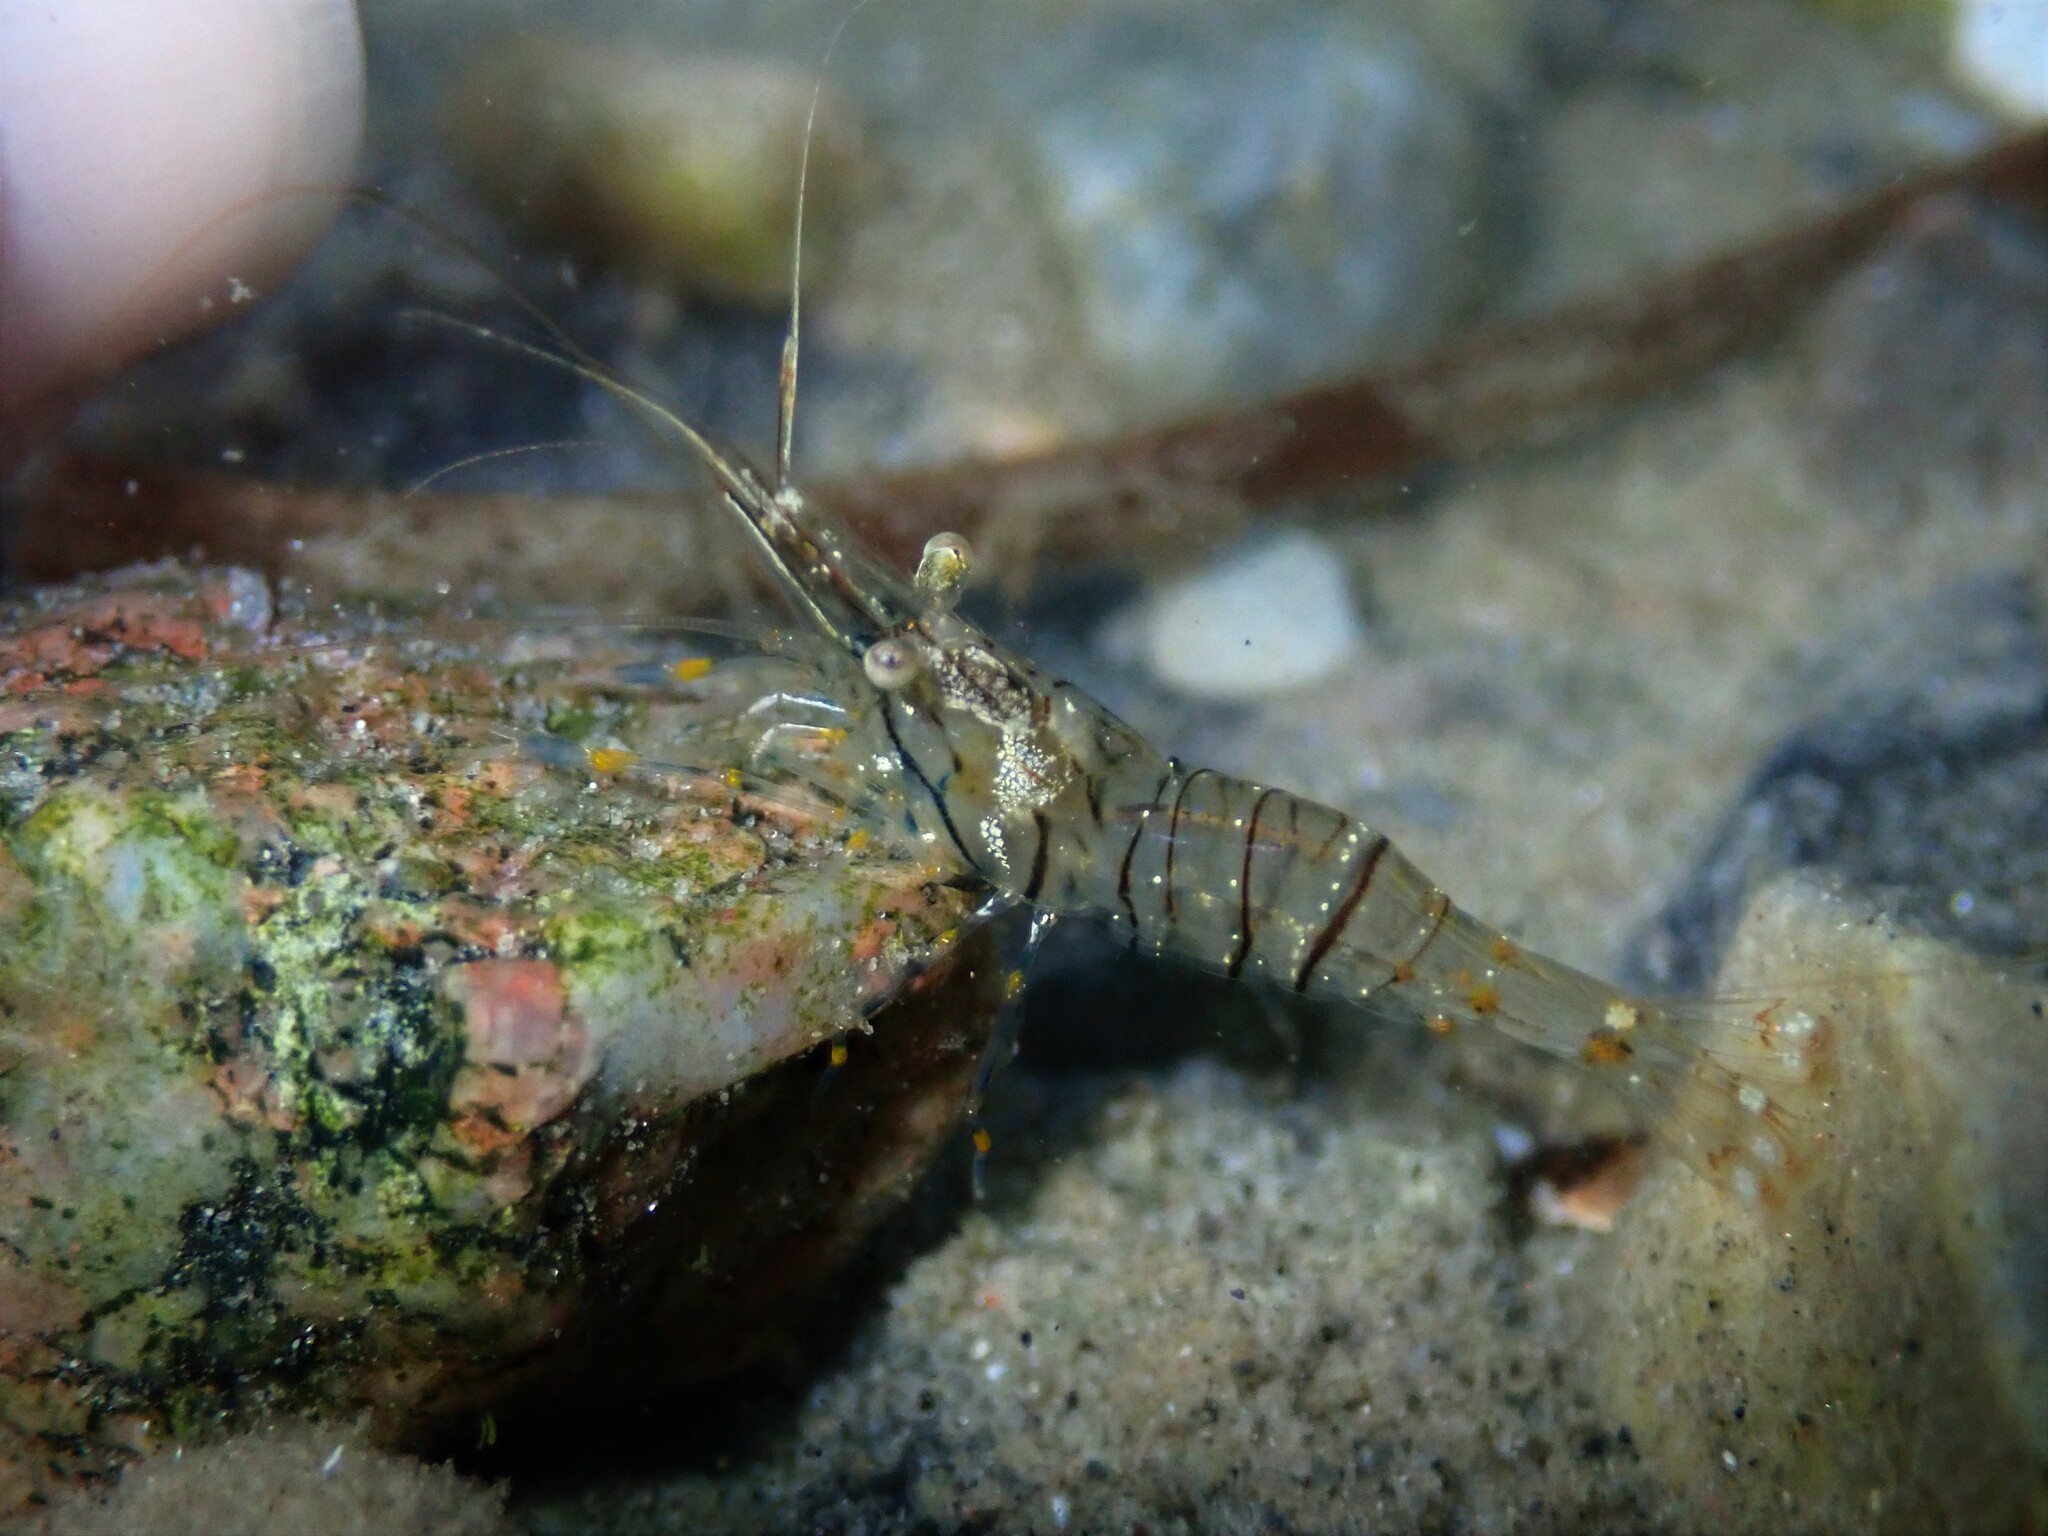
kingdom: Animalia
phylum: Arthropoda
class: Malacostraca
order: Decapoda
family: Palaemonidae
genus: Palaemon
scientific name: Palaemon elegans
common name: Grass prawm
